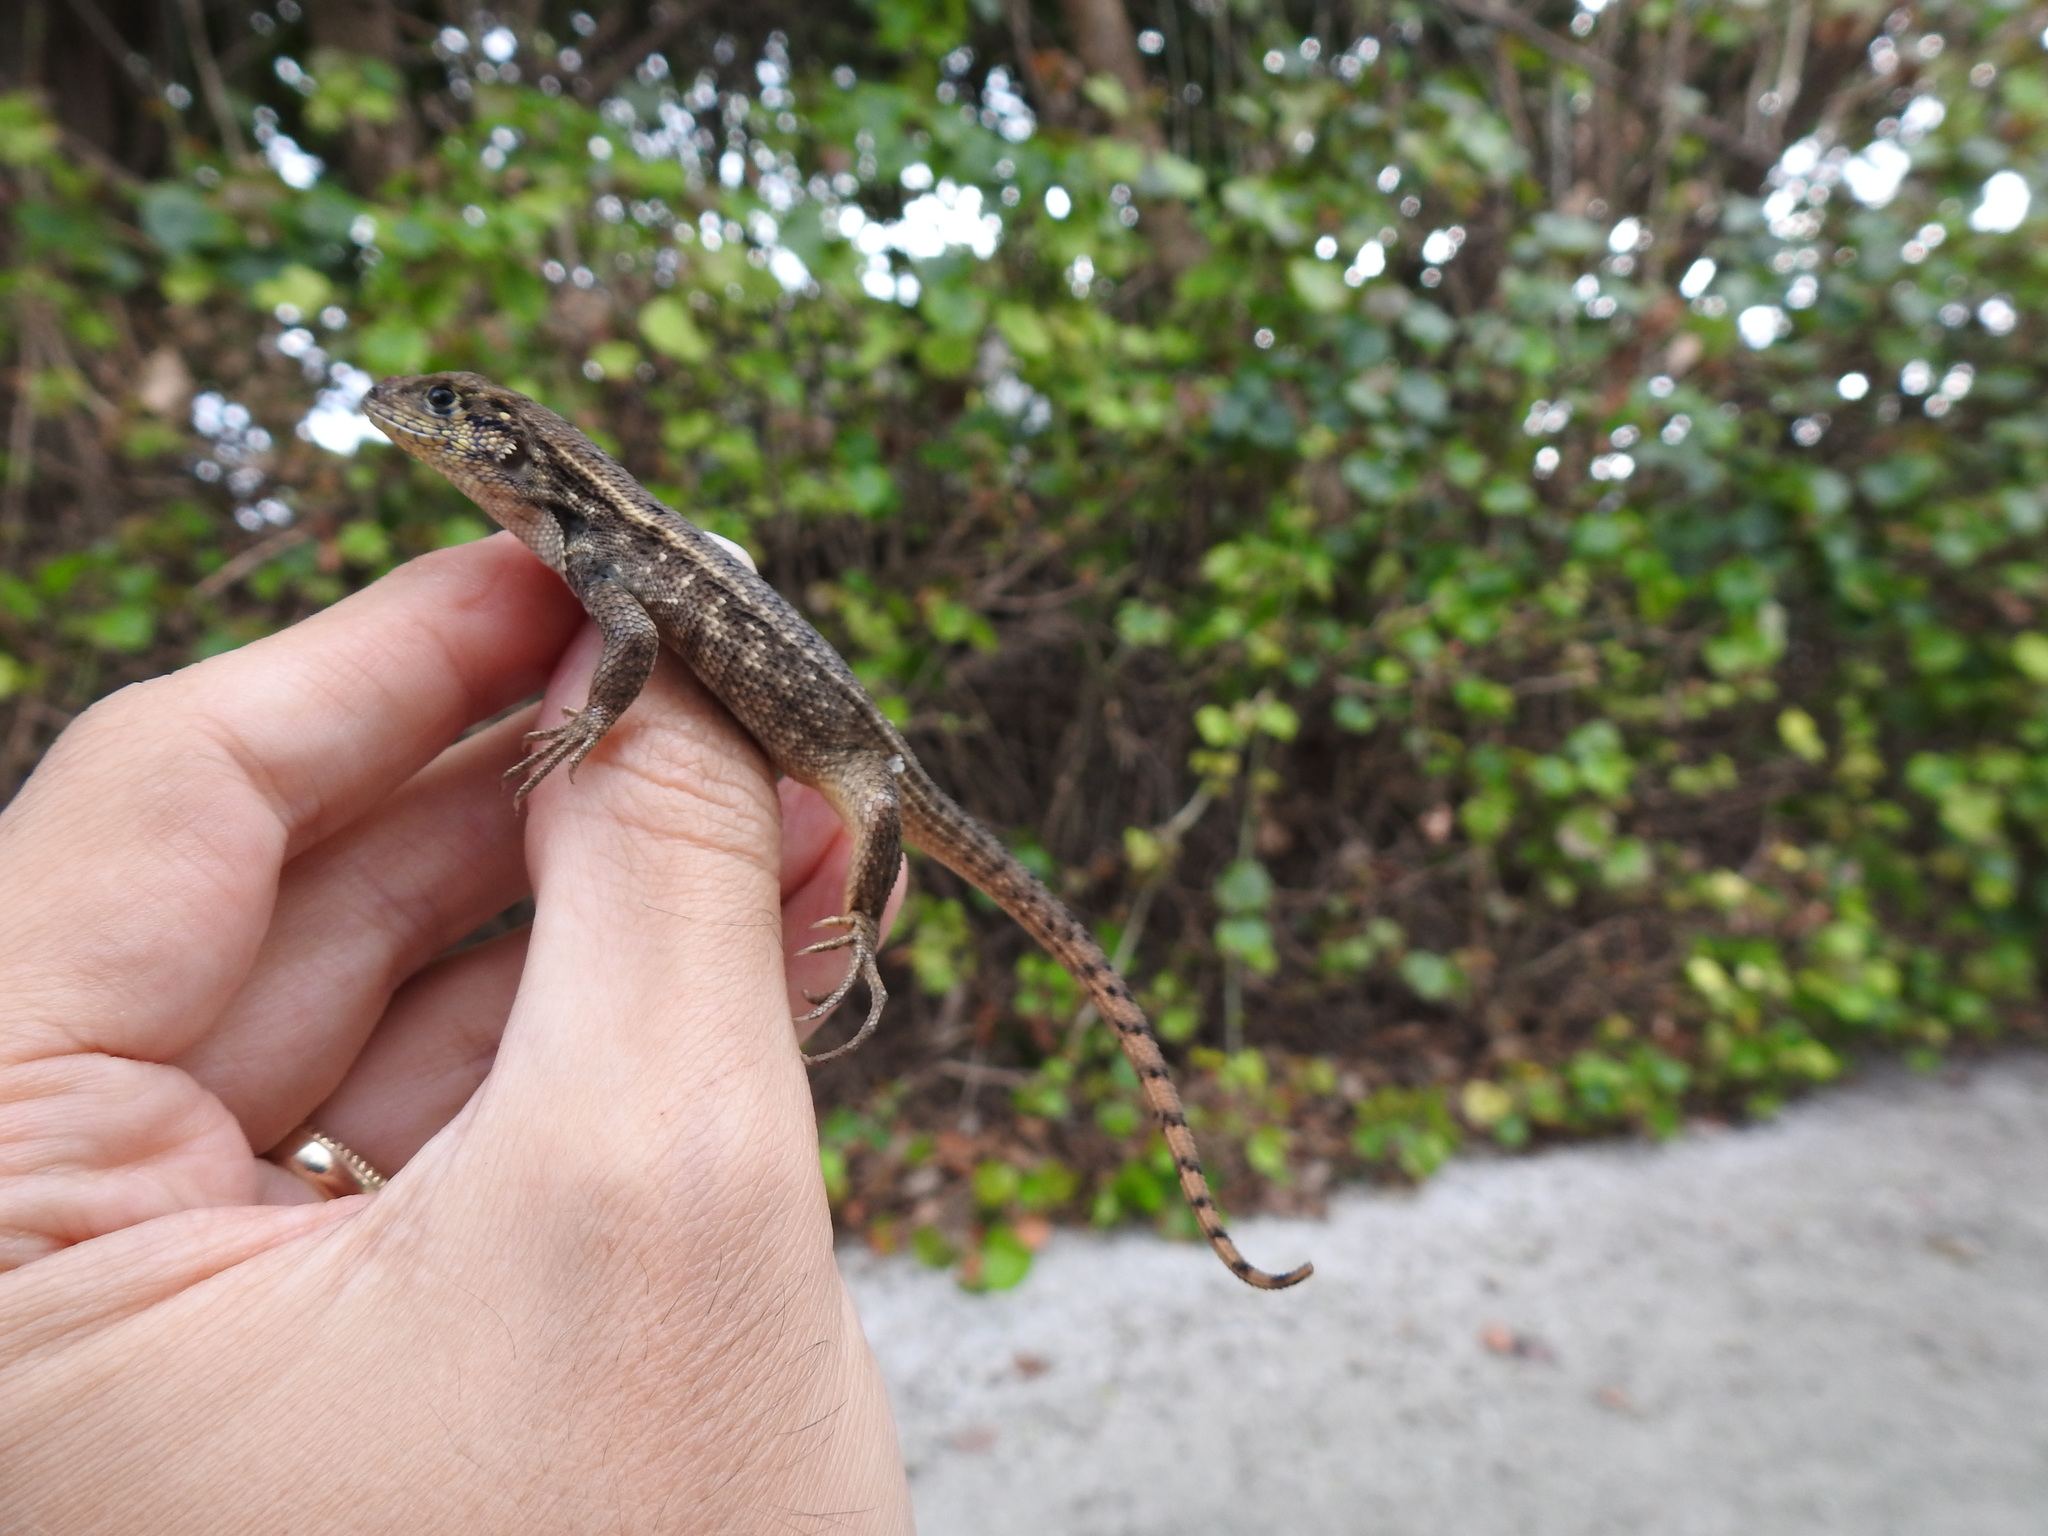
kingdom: Animalia
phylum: Chordata
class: Squamata
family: Leiocephalidae
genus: Leiocephalus
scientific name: Leiocephalus carinatus
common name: Northern curly-tailed lizard
